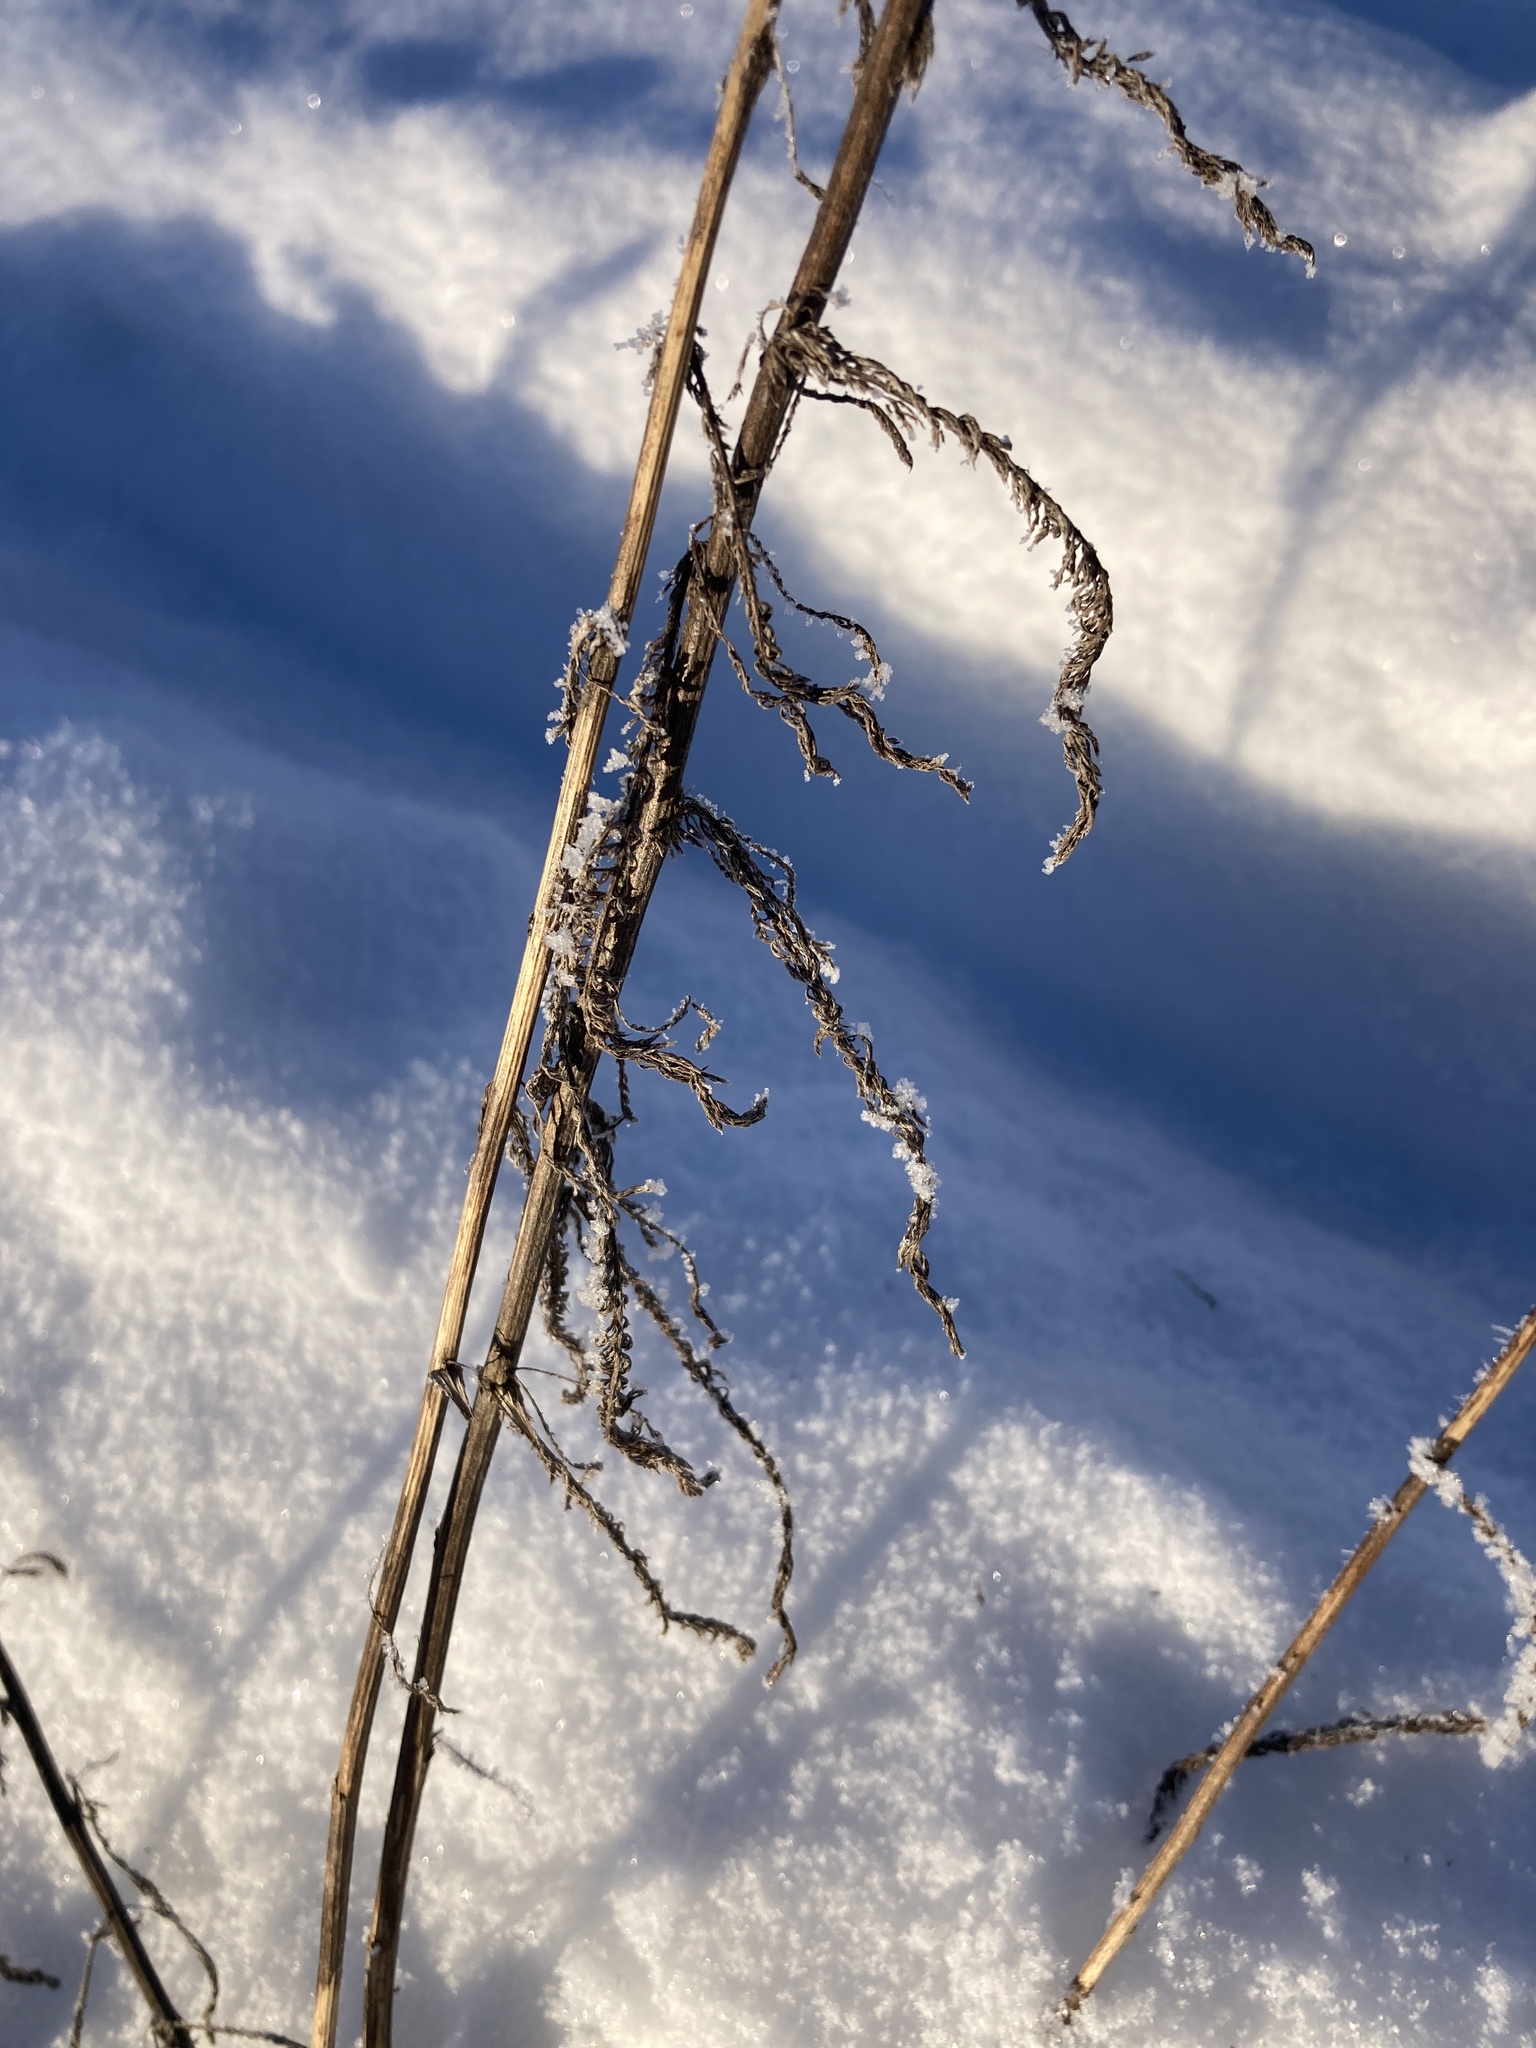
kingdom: Plantae
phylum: Tracheophyta
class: Magnoliopsida
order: Asterales
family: Asteraceae
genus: Achillea
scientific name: Achillea millefolium
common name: Yarrow
